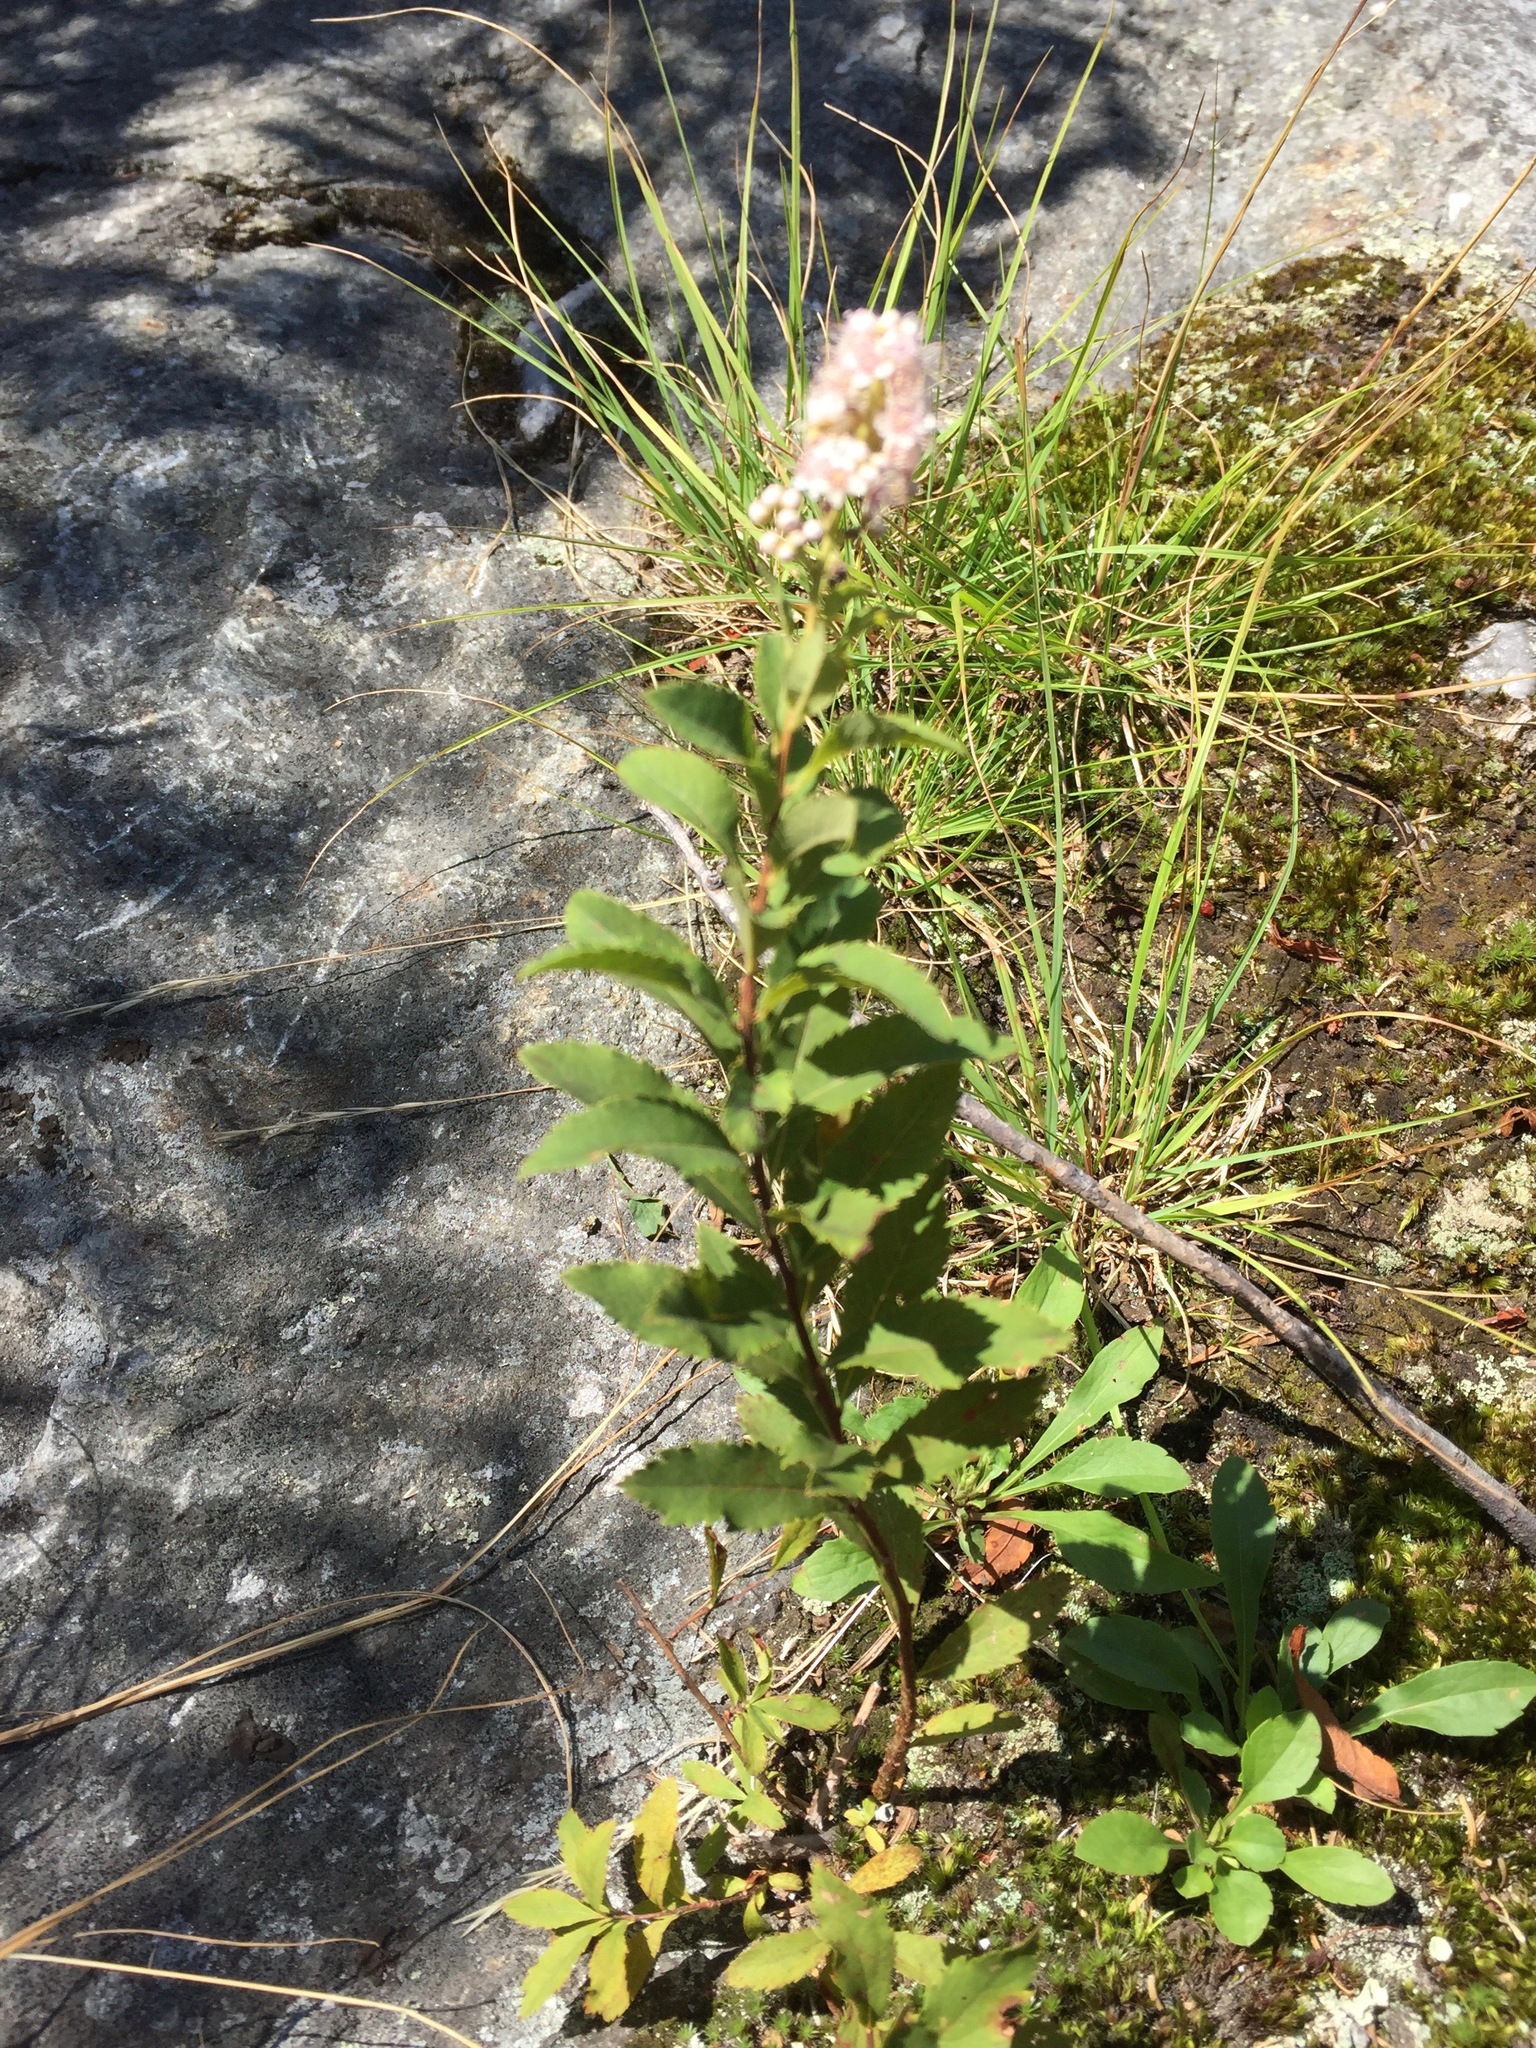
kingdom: Plantae
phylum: Tracheophyta
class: Magnoliopsida
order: Rosales
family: Rosaceae
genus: Spiraea
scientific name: Spiraea alba
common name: Pale bridewort
